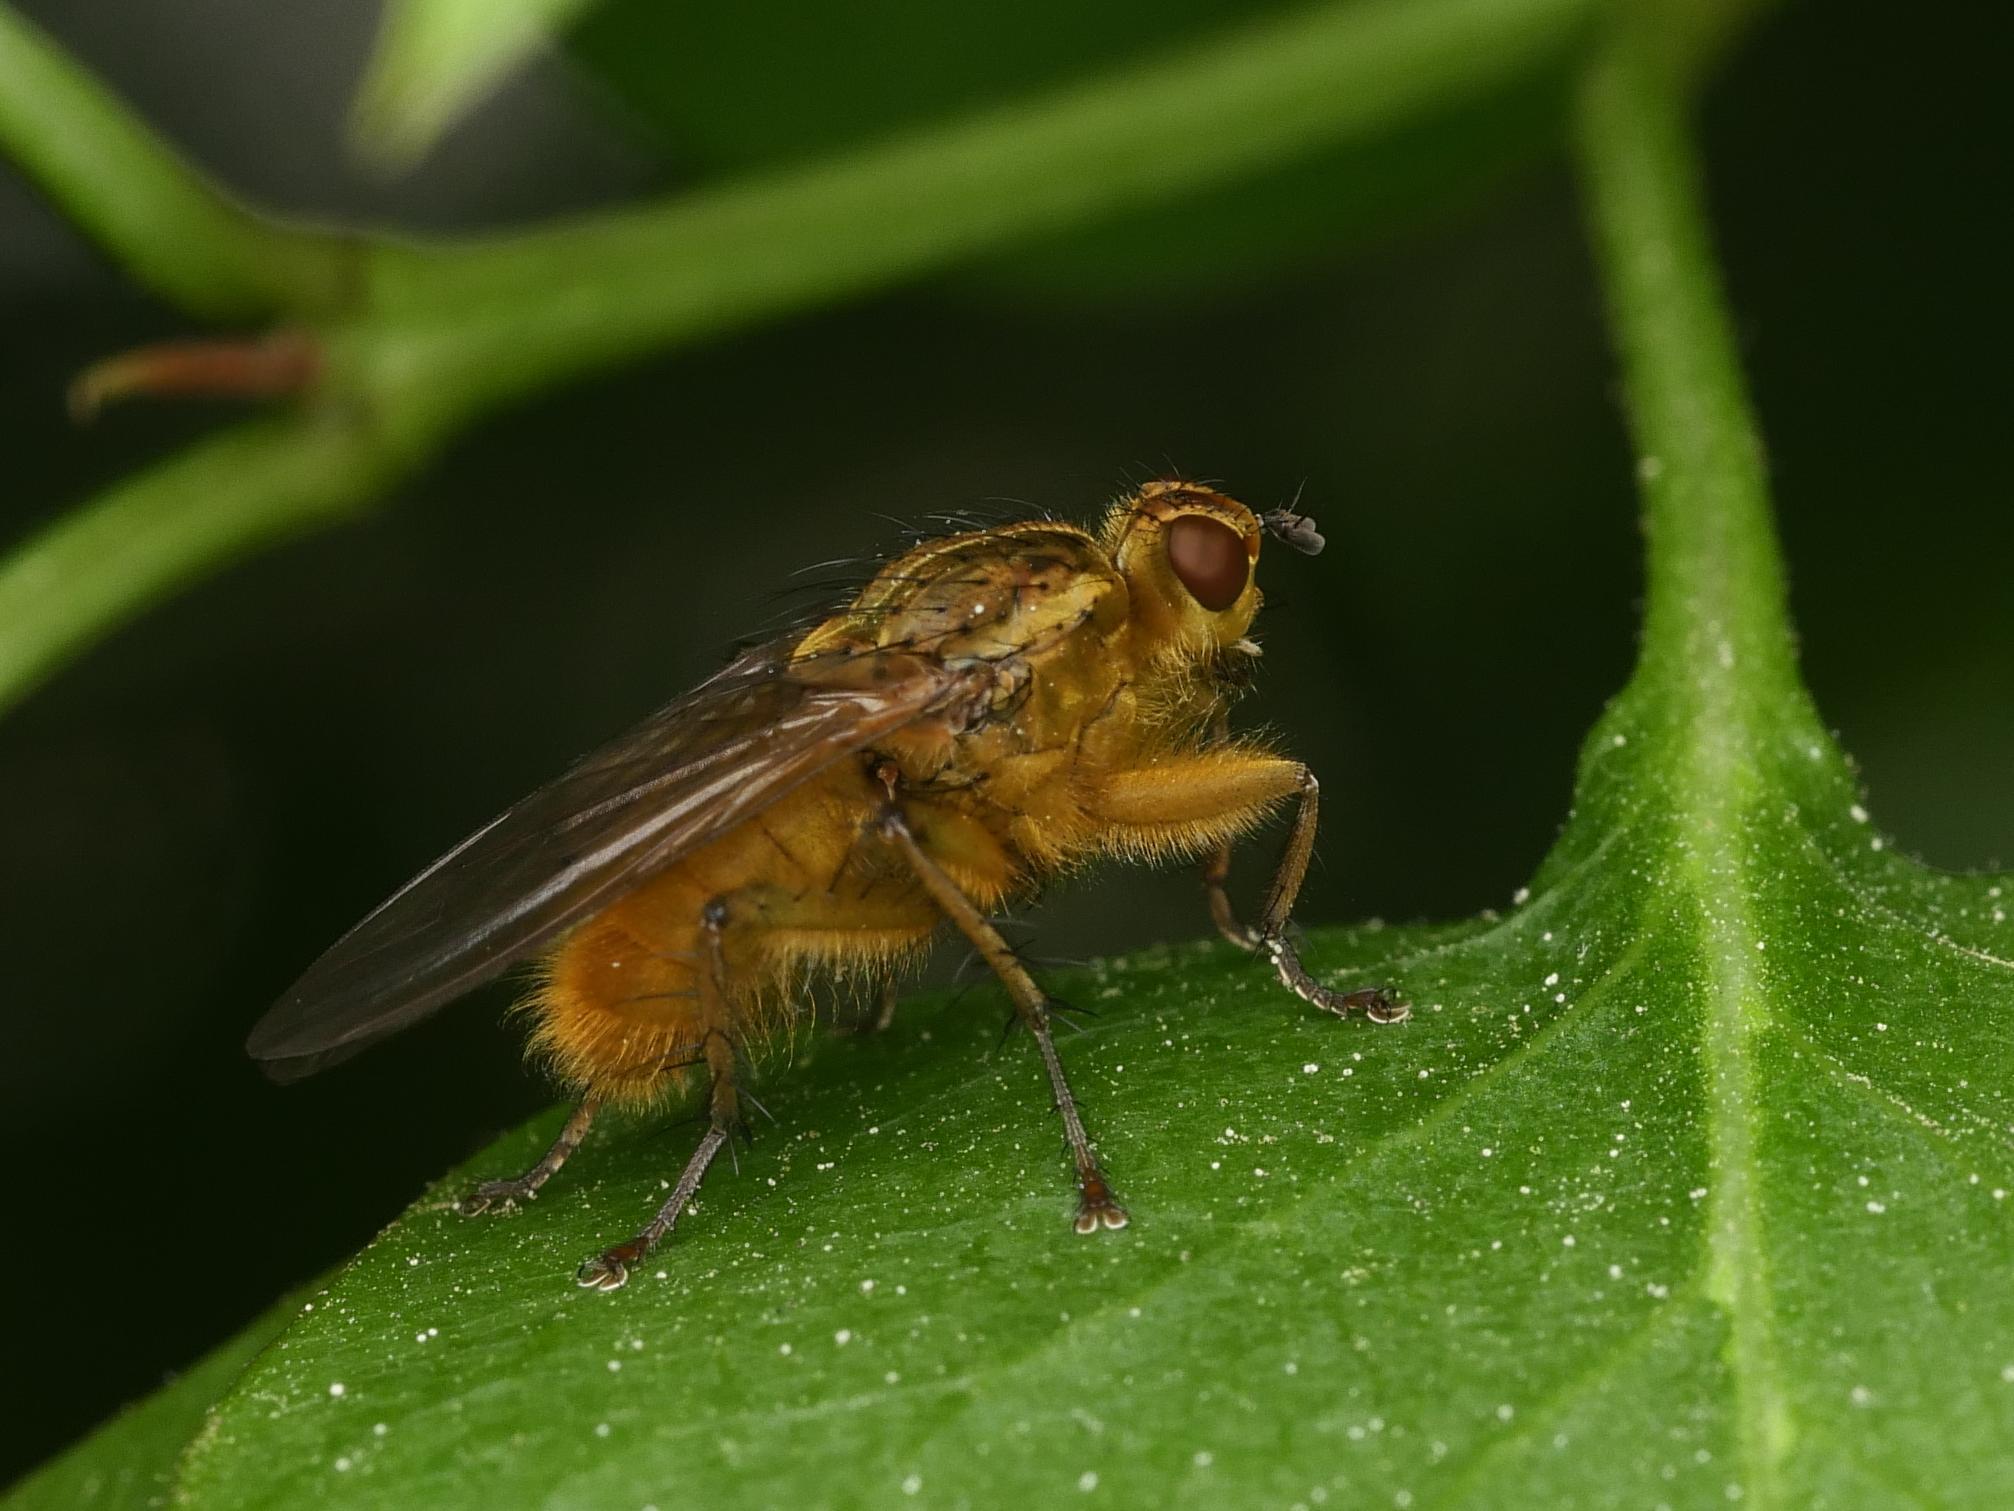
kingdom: Animalia
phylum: Arthropoda
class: Insecta
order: Diptera
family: Scathophagidae
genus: Scathophaga
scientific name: Scathophaga stercoraria
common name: Yellow dung fly
